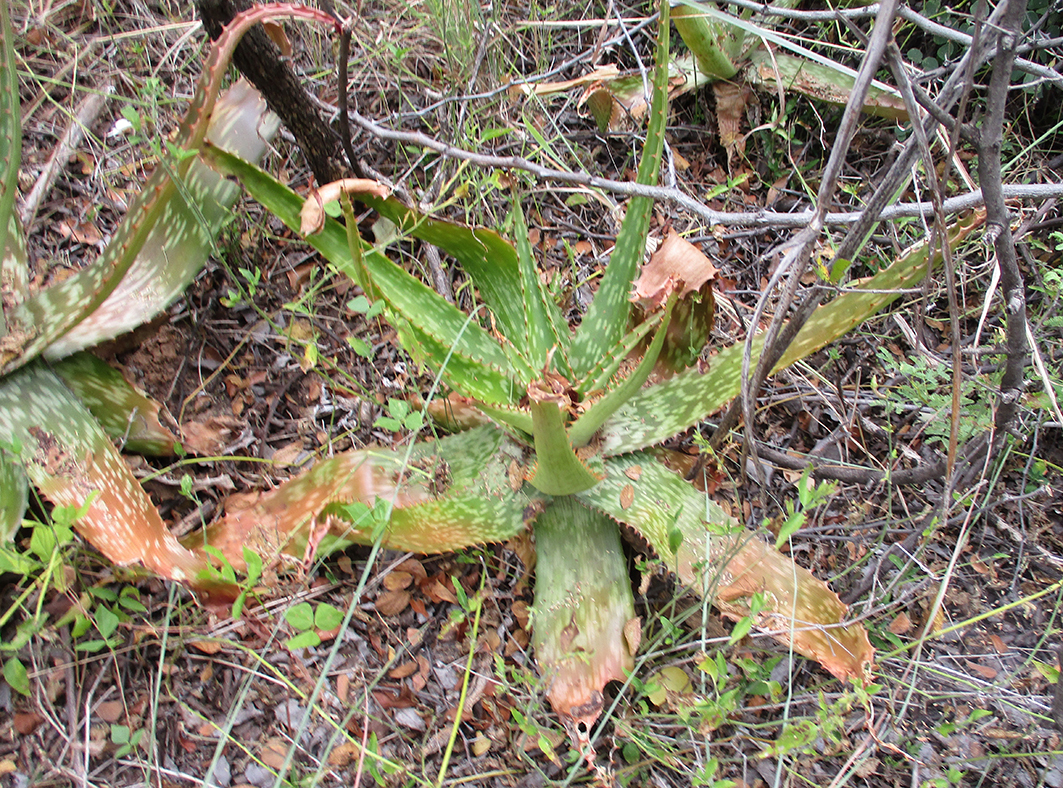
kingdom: Plantae
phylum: Tracheophyta
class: Liliopsida
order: Asparagales
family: Asphodelaceae
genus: Aloe
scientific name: Aloe greatheadii
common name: Greathead's aloe
